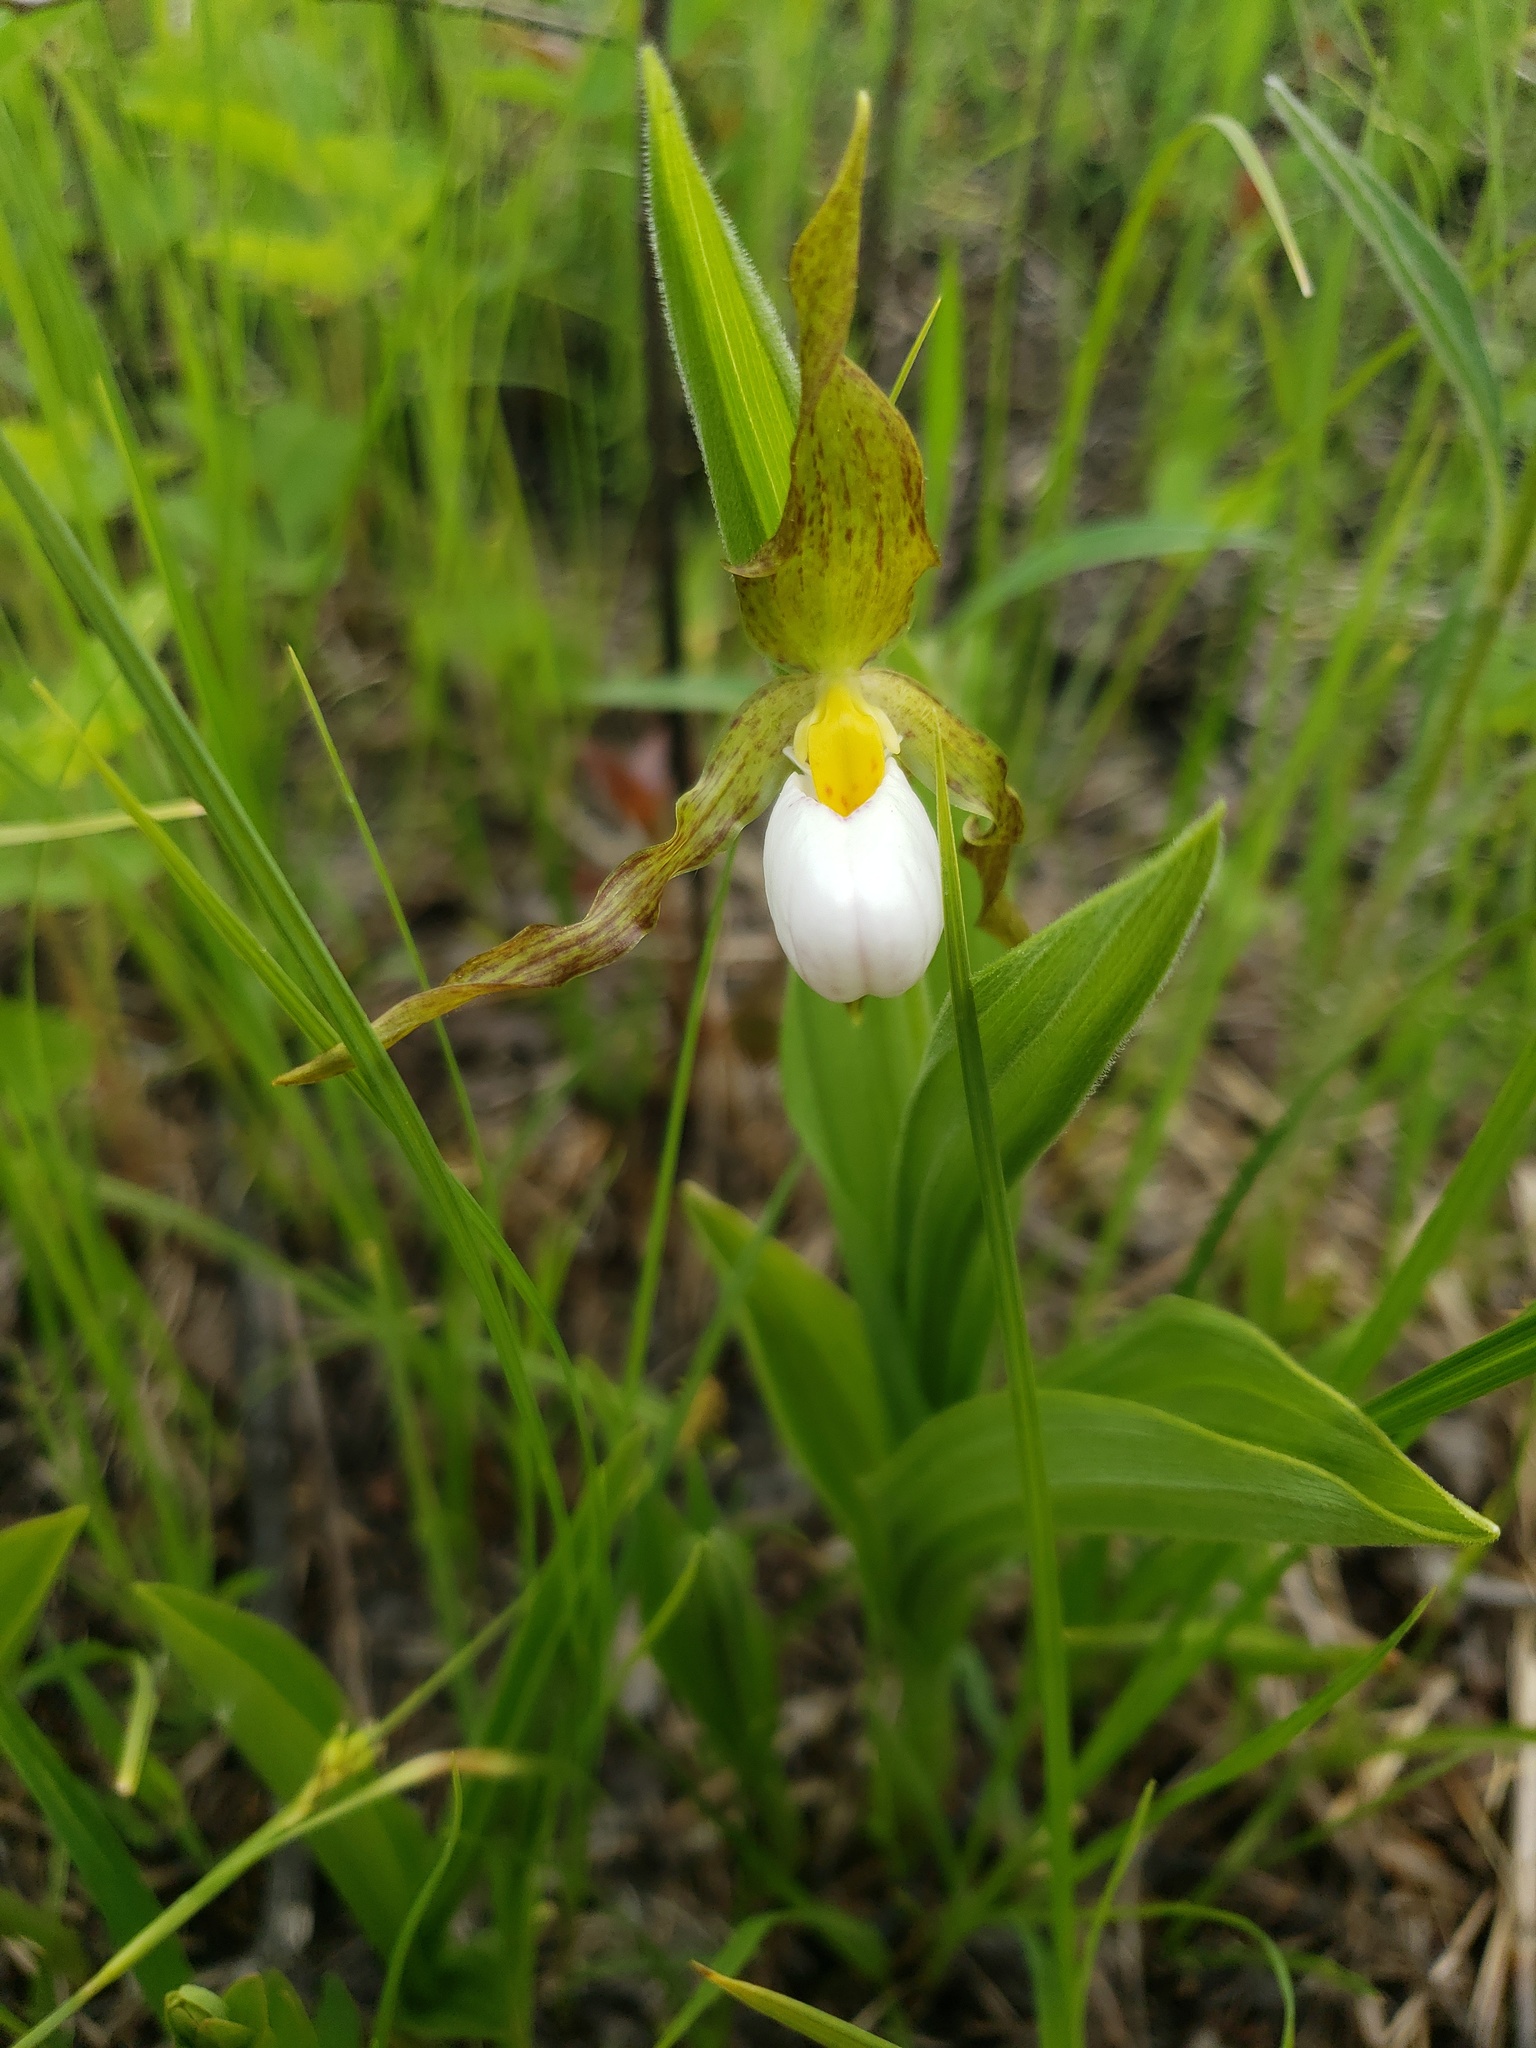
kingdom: Plantae
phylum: Tracheophyta
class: Liliopsida
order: Asparagales
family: Orchidaceae
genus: Cypripedium
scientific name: Cypripedium candidum
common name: White lady's-slipper
